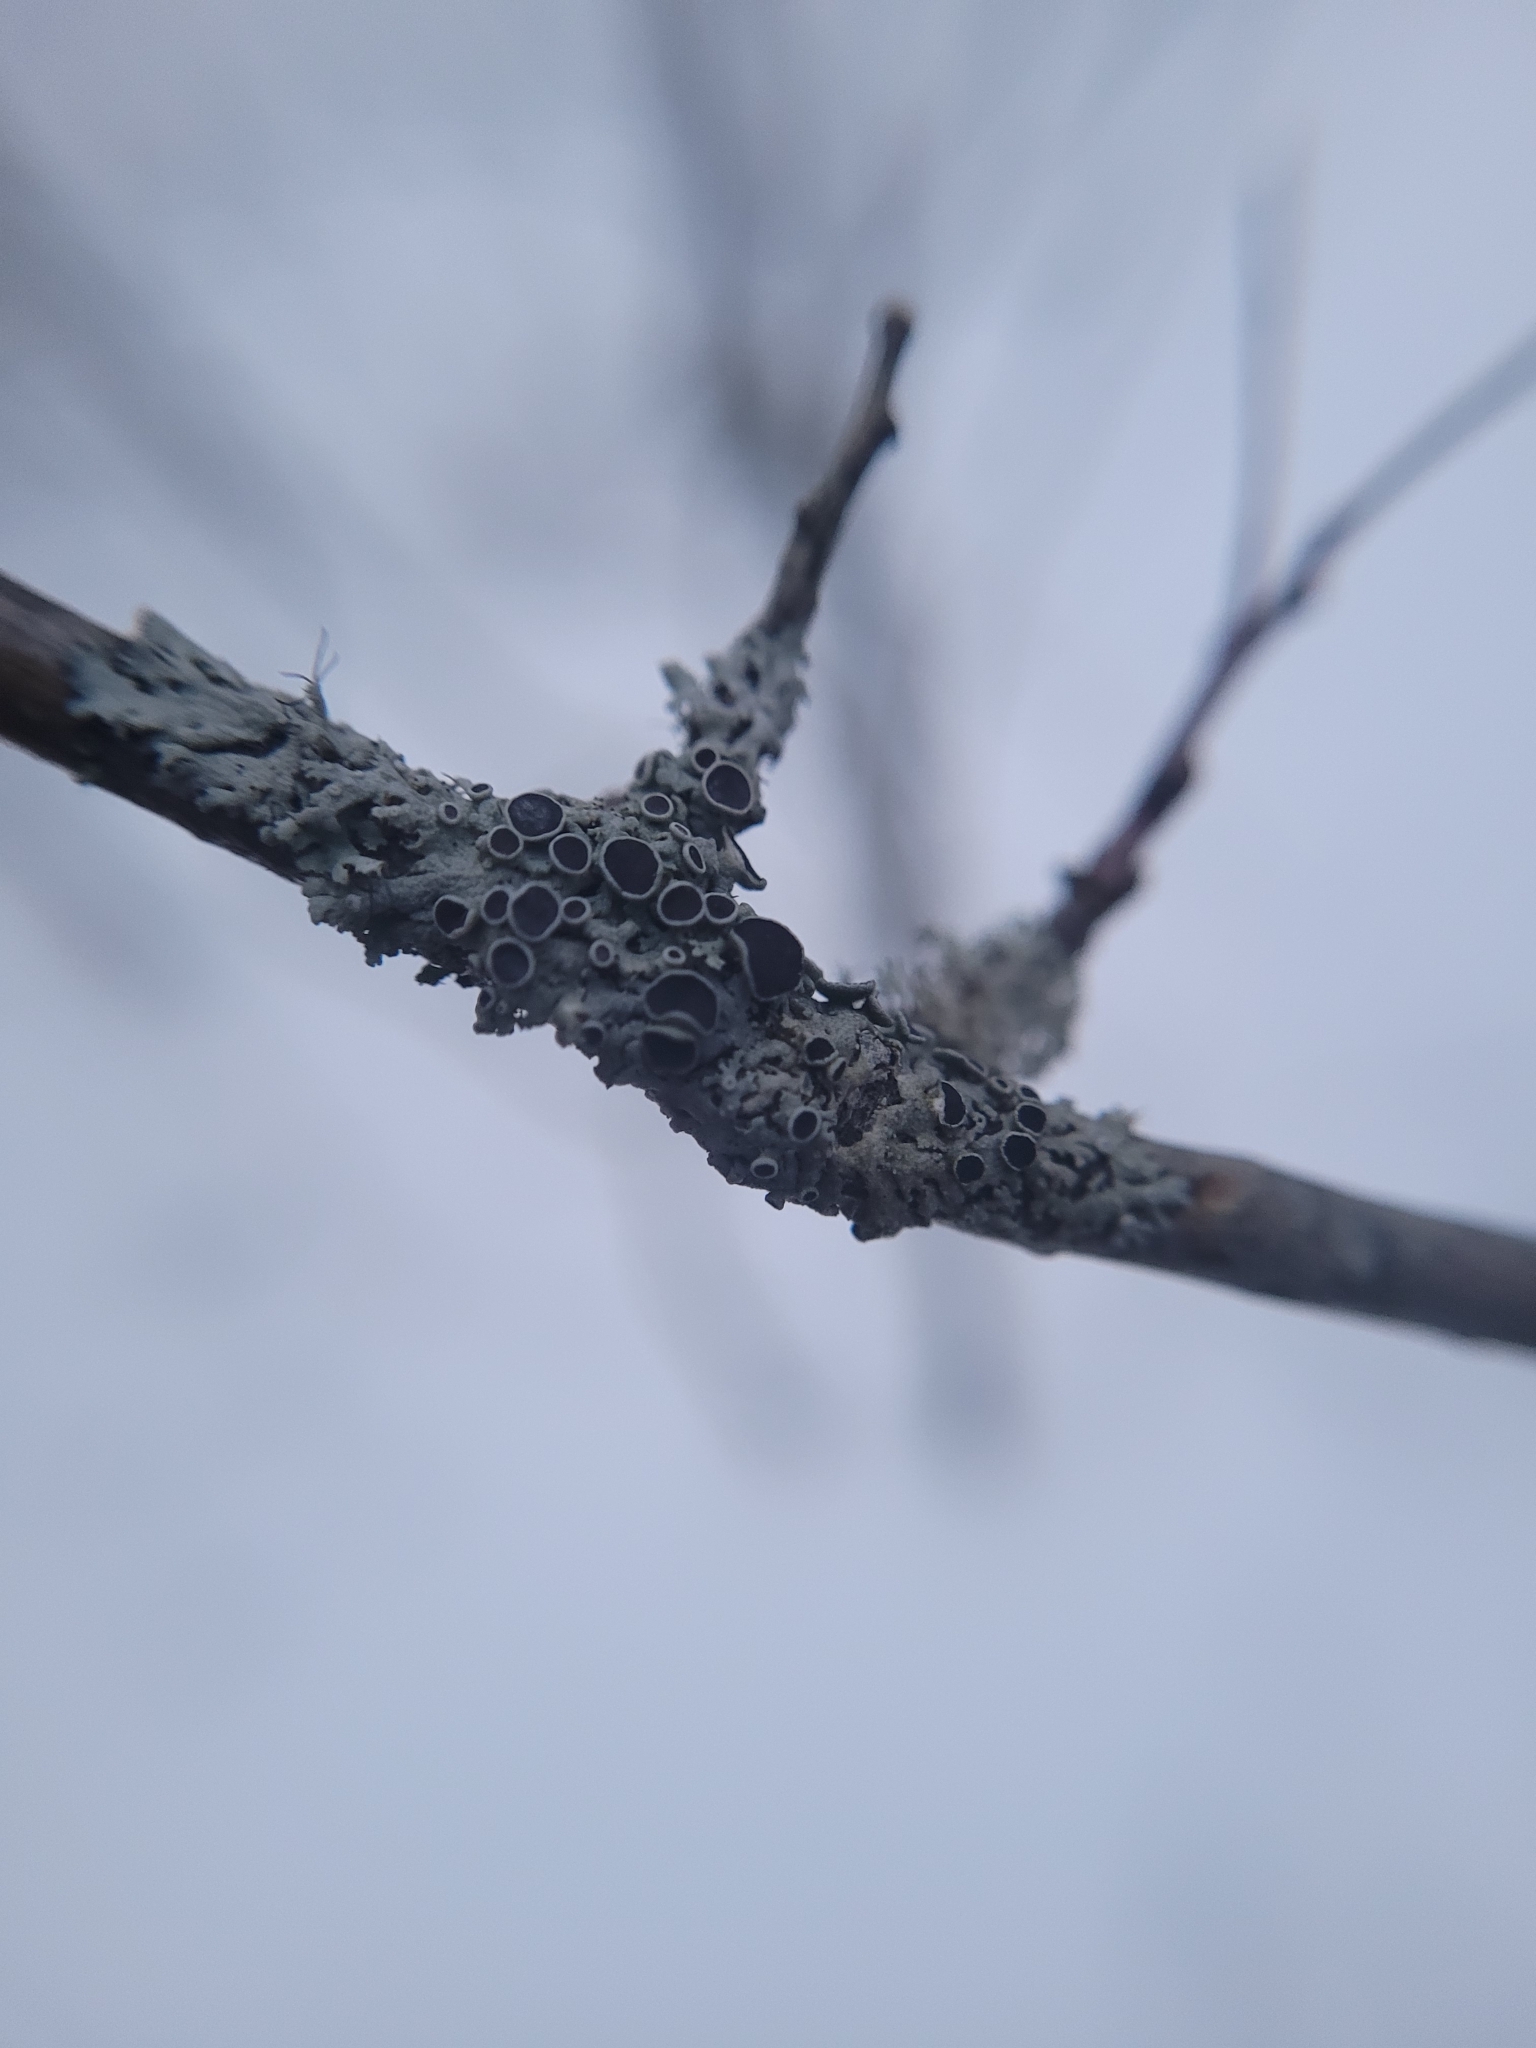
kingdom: Fungi
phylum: Ascomycota
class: Lecanoromycetes
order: Caliciales
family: Physciaceae
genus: Physcia
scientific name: Physcia stellaris
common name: Star rosette lichen
